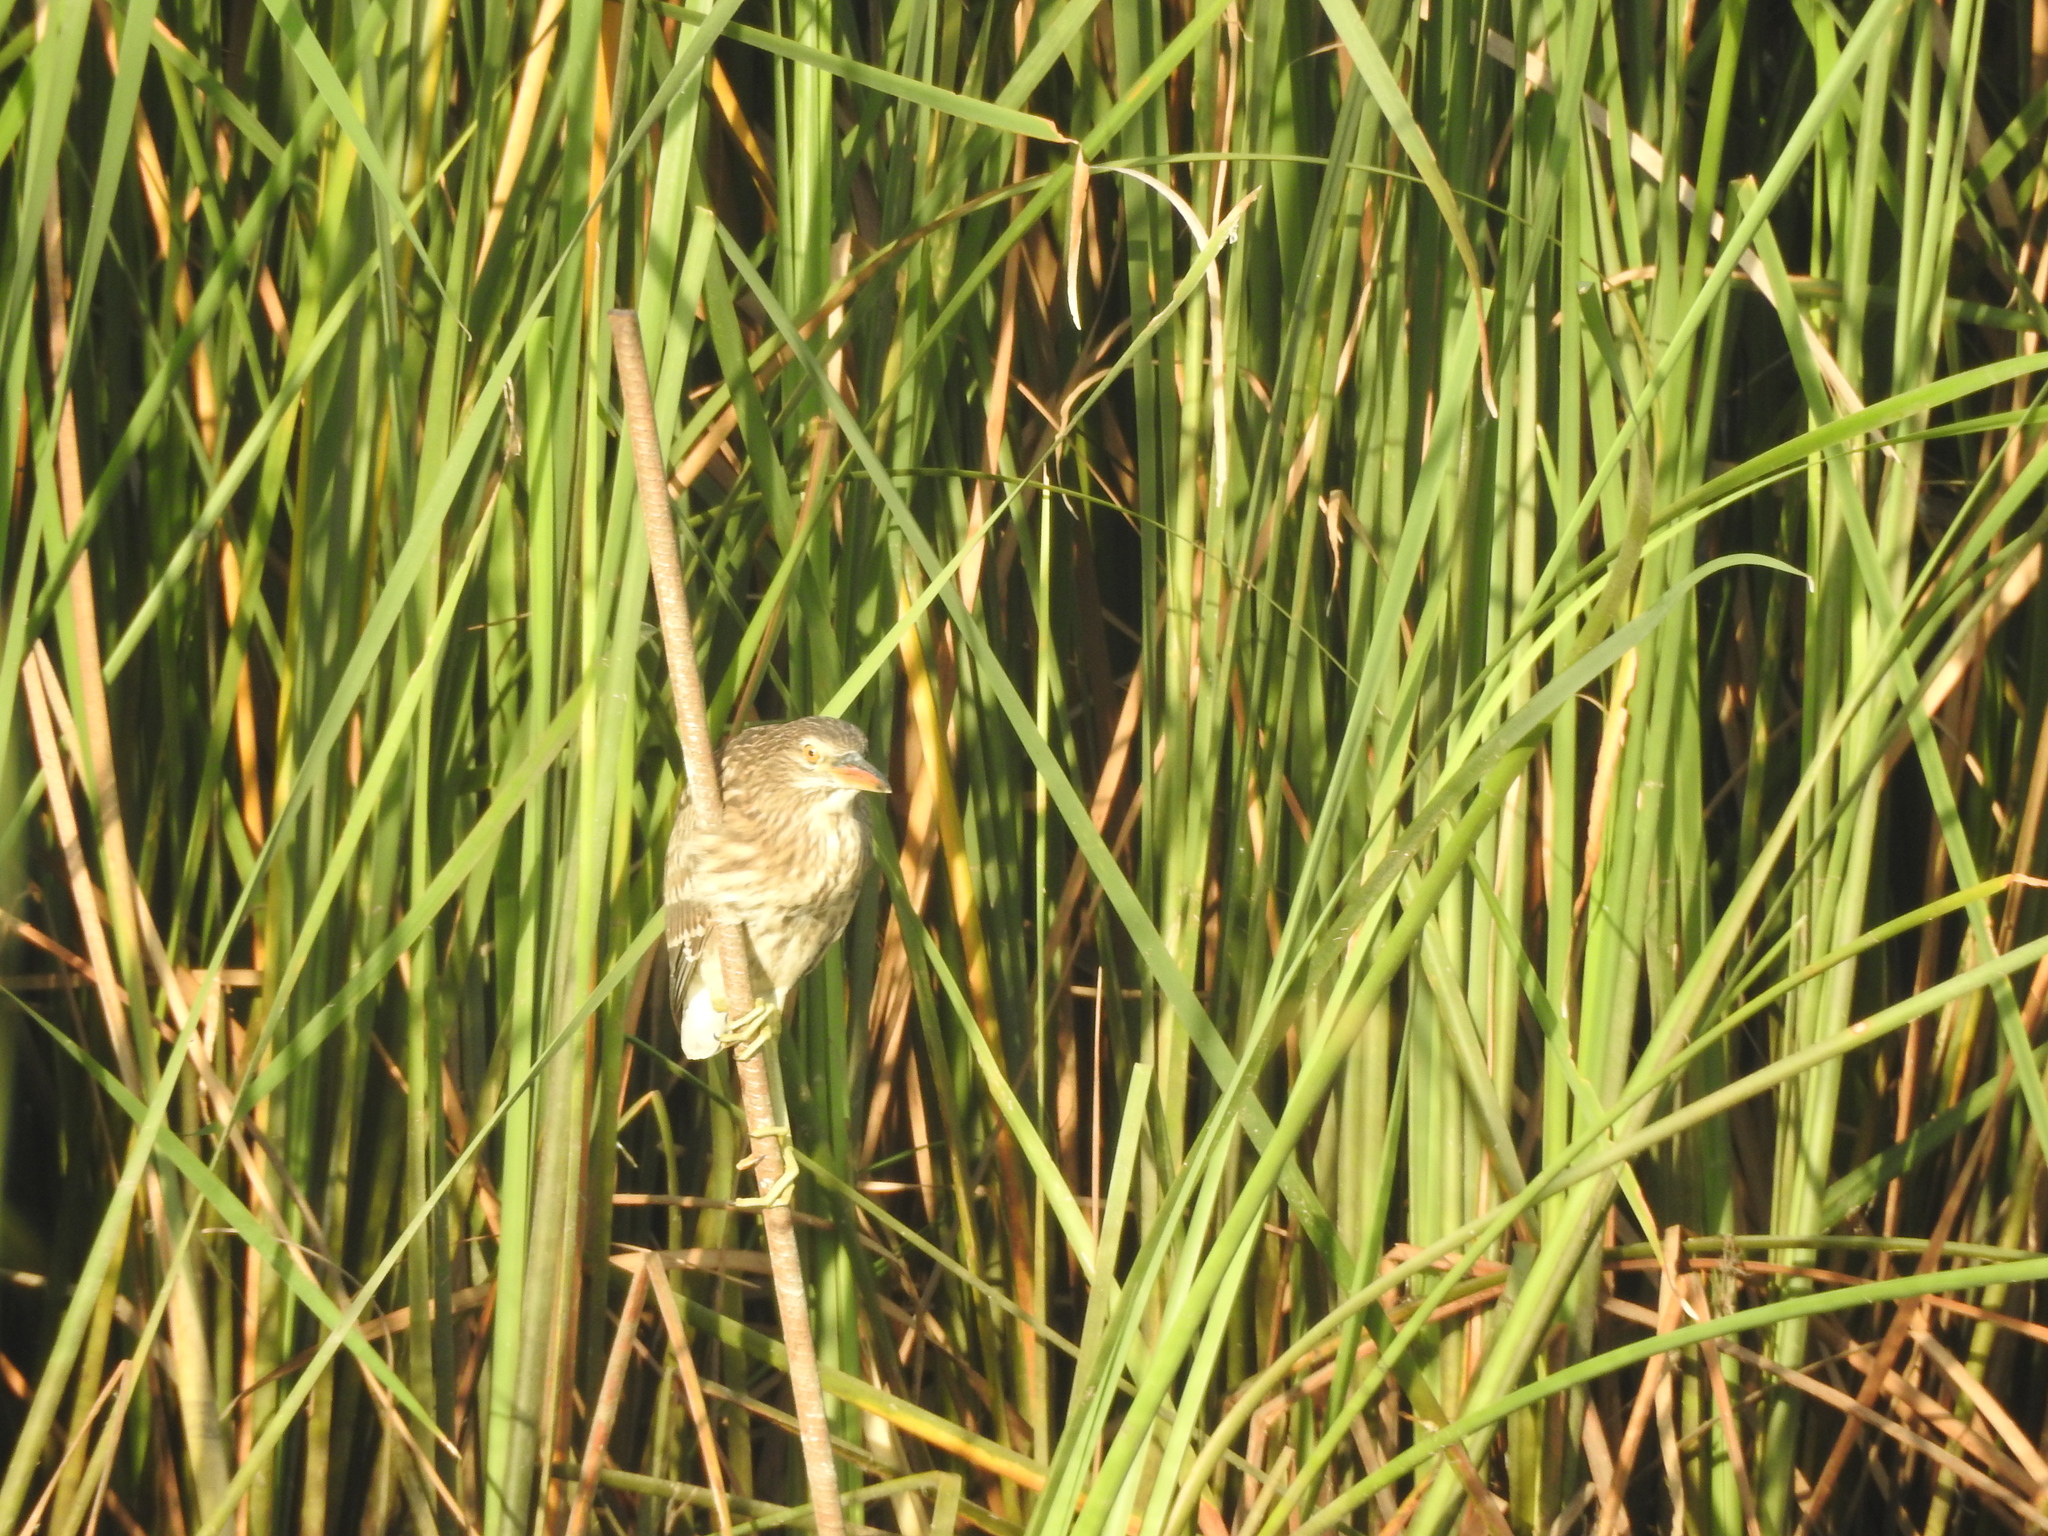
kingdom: Animalia
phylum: Chordata
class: Aves
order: Pelecaniformes
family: Ardeidae
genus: Ardeola
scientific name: Ardeola grayii
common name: Indian pond heron
